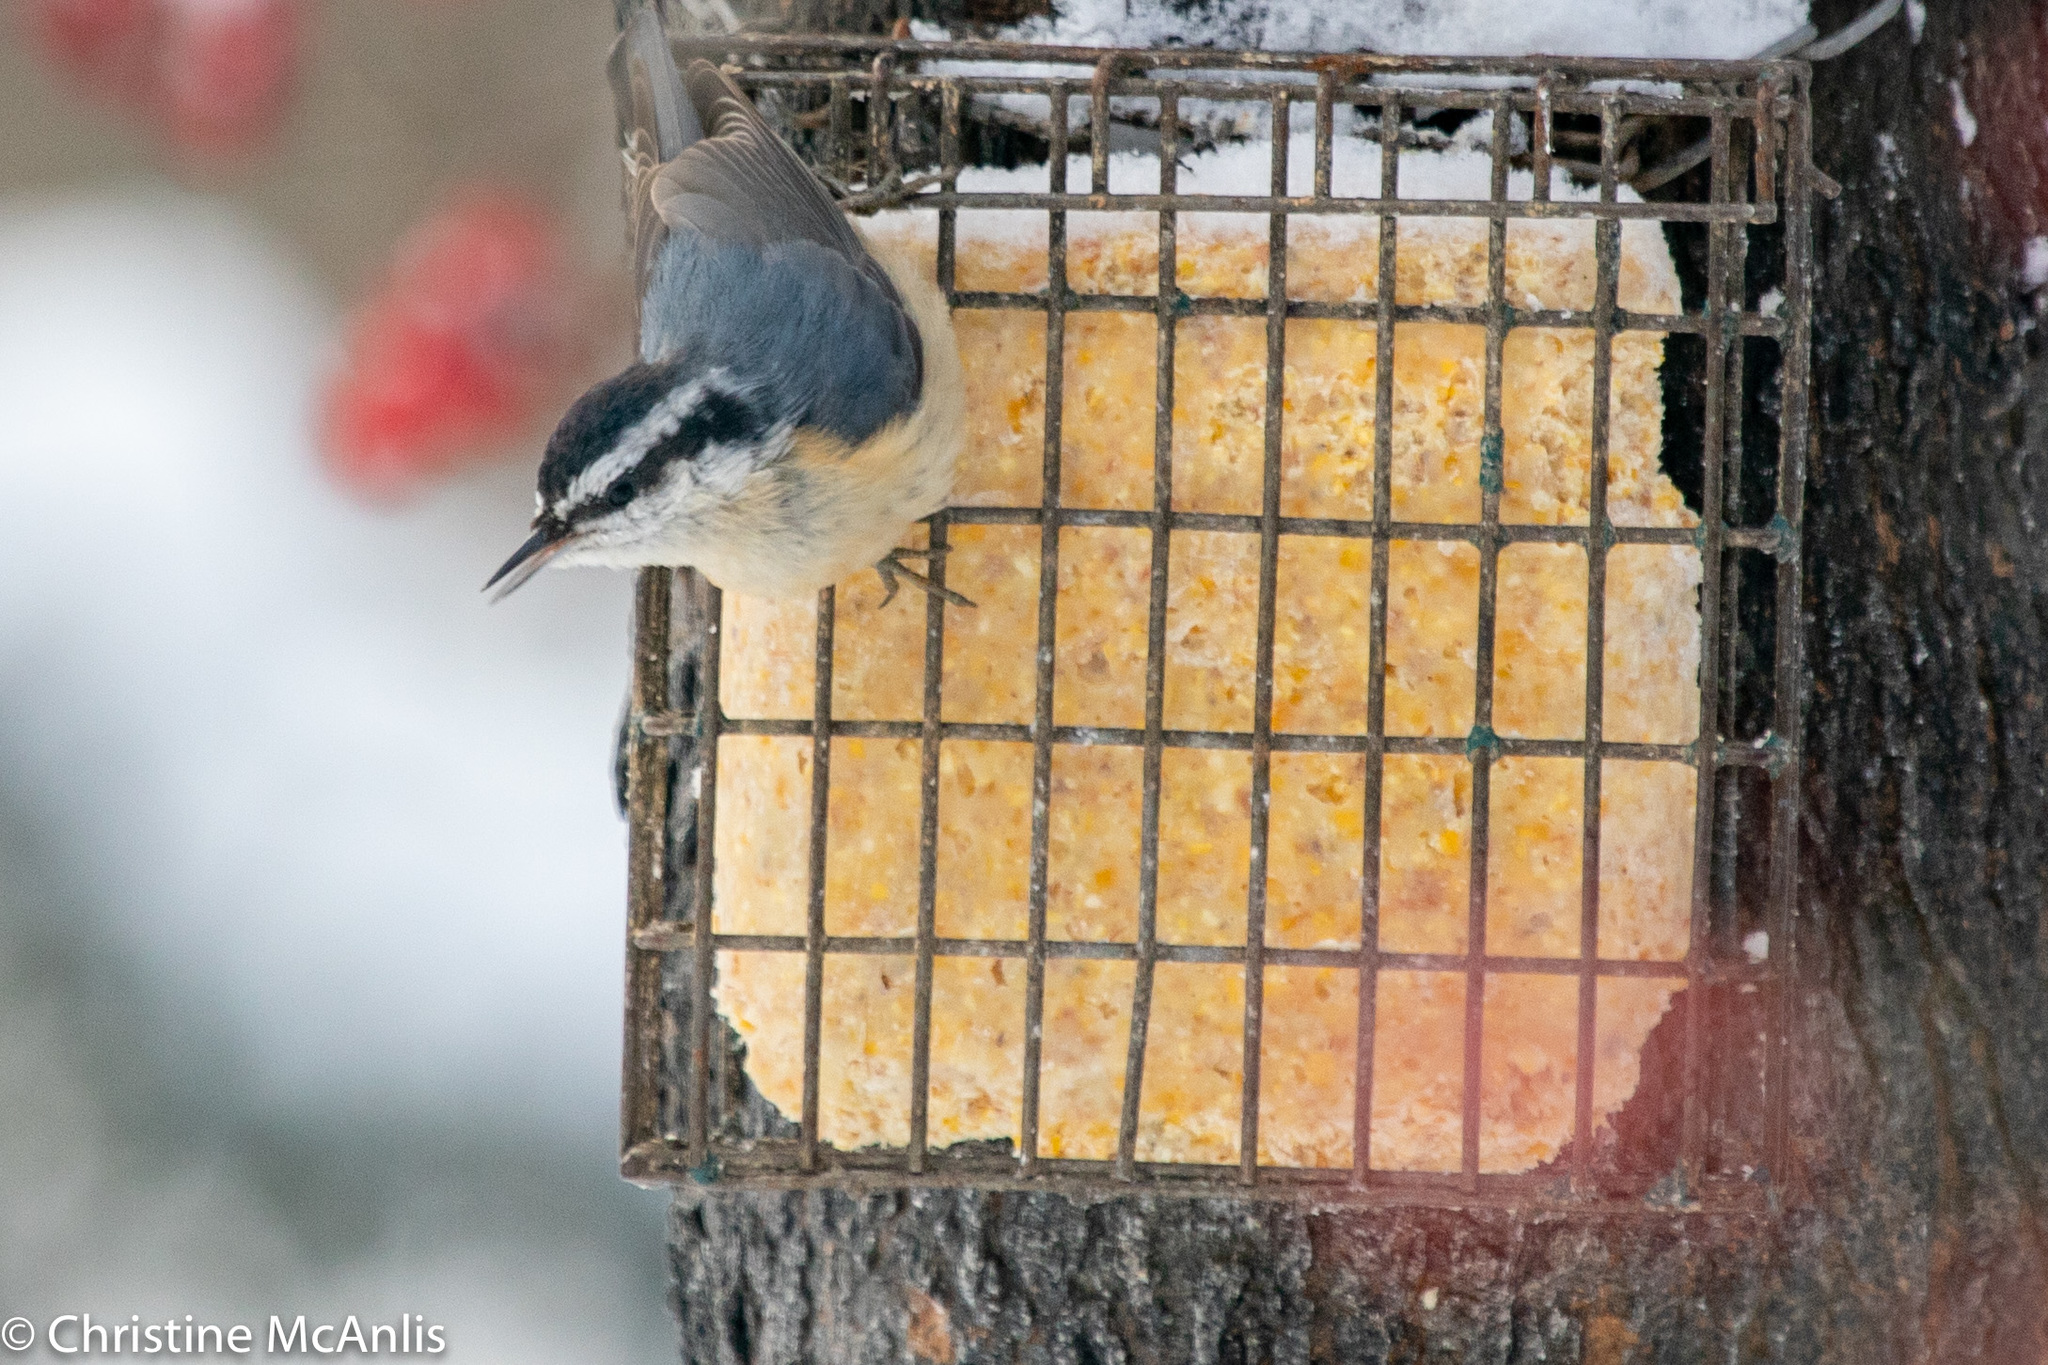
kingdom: Animalia
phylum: Chordata
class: Aves
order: Passeriformes
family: Sittidae
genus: Sitta
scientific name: Sitta canadensis
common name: Red-breasted nuthatch
